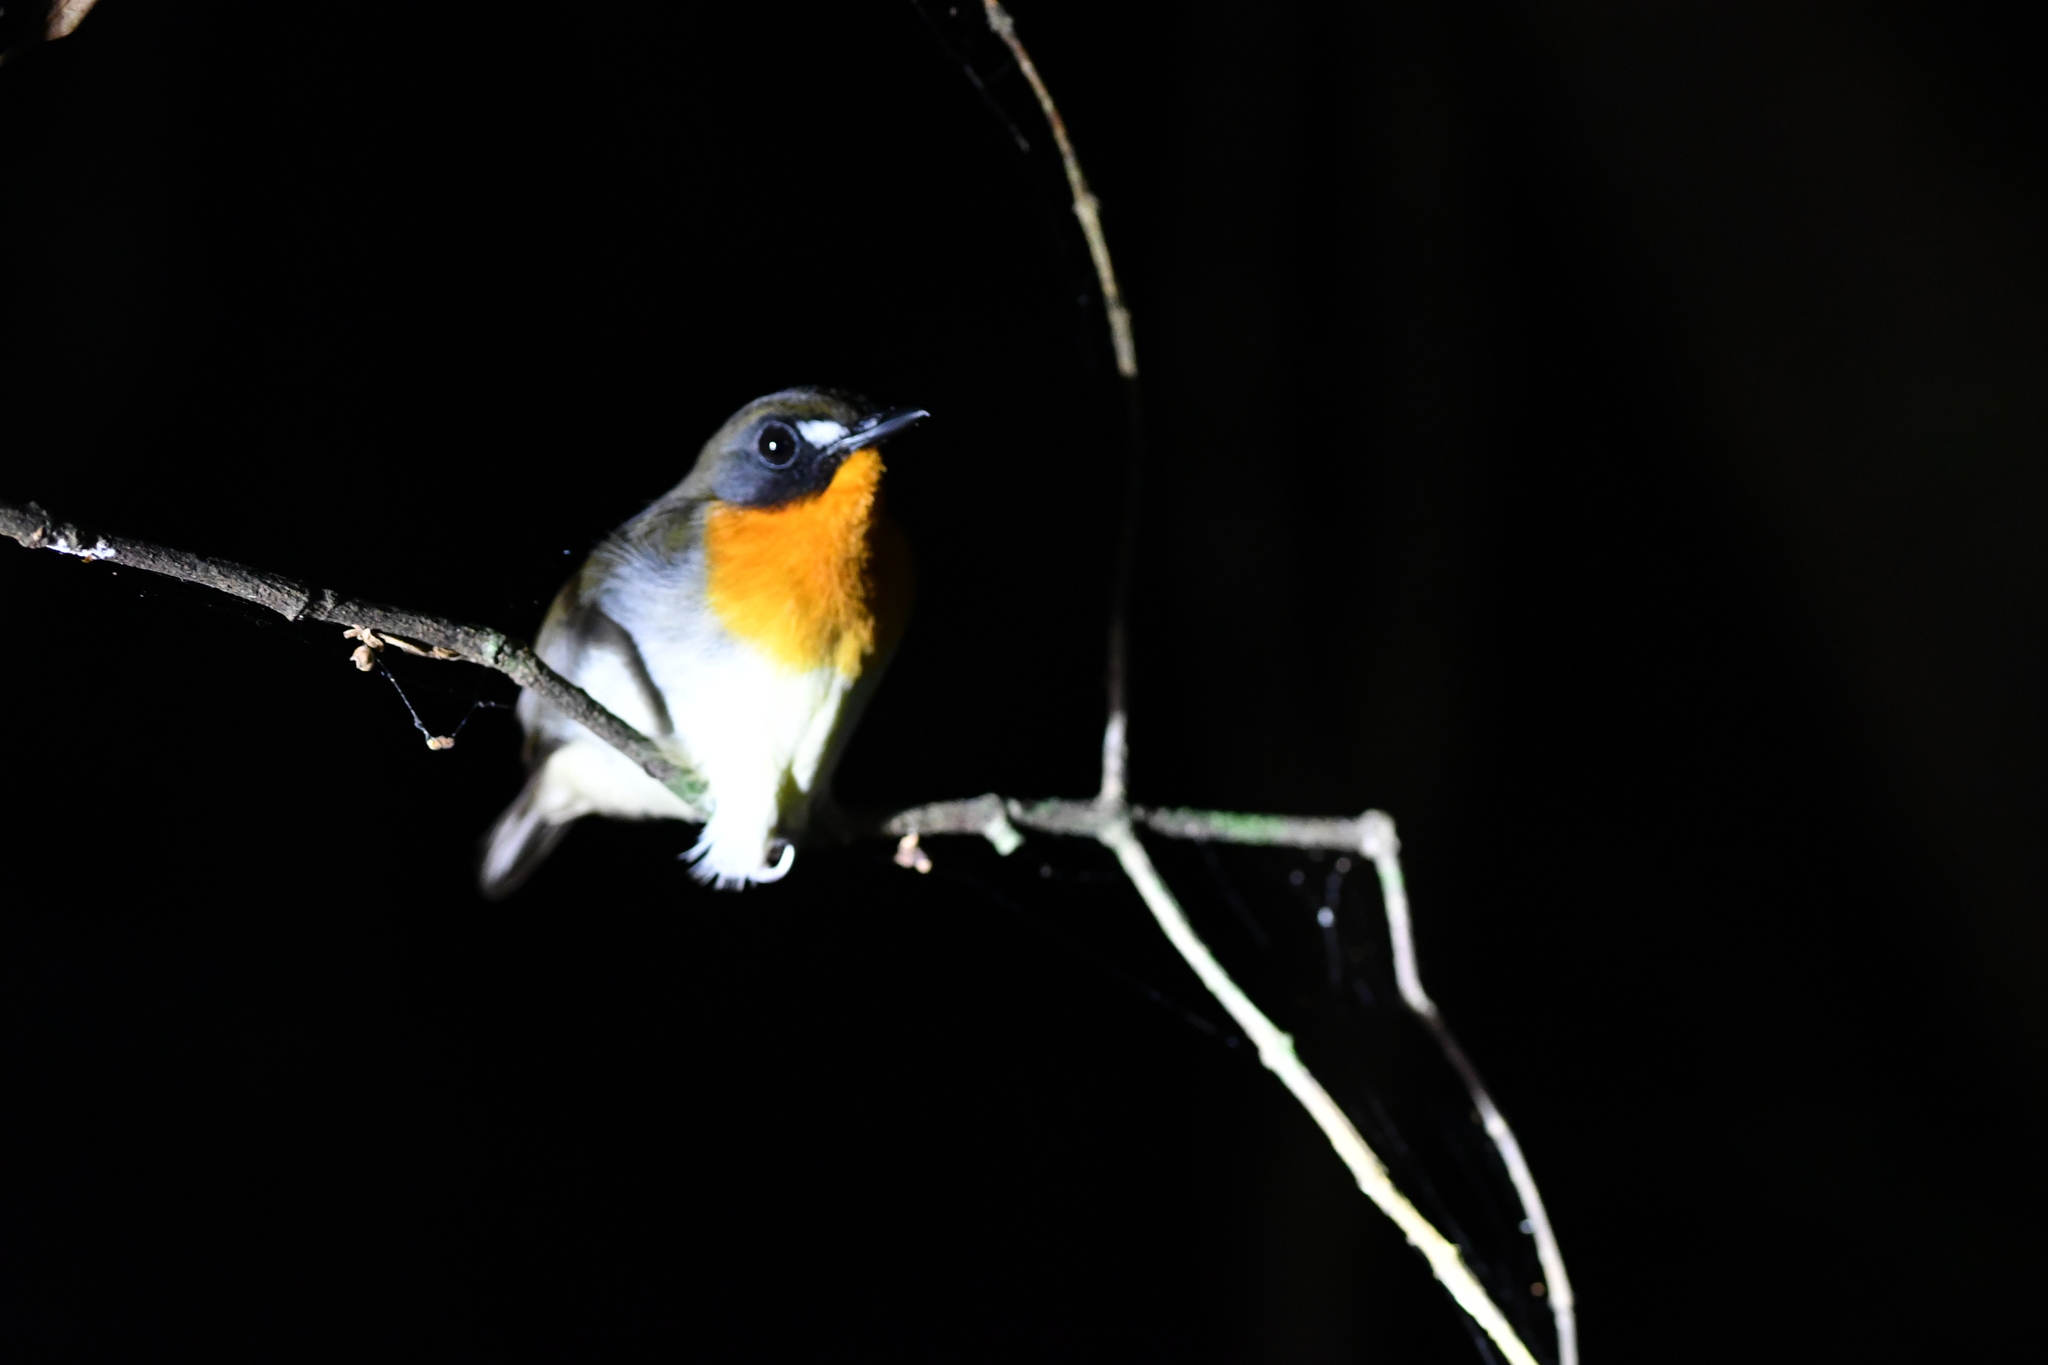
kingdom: Animalia
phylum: Chordata
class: Aves
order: Passeriformes
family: Muscicapidae
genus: Stiphrornis
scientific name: Stiphrornis erythrothorax
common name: Forest robin
